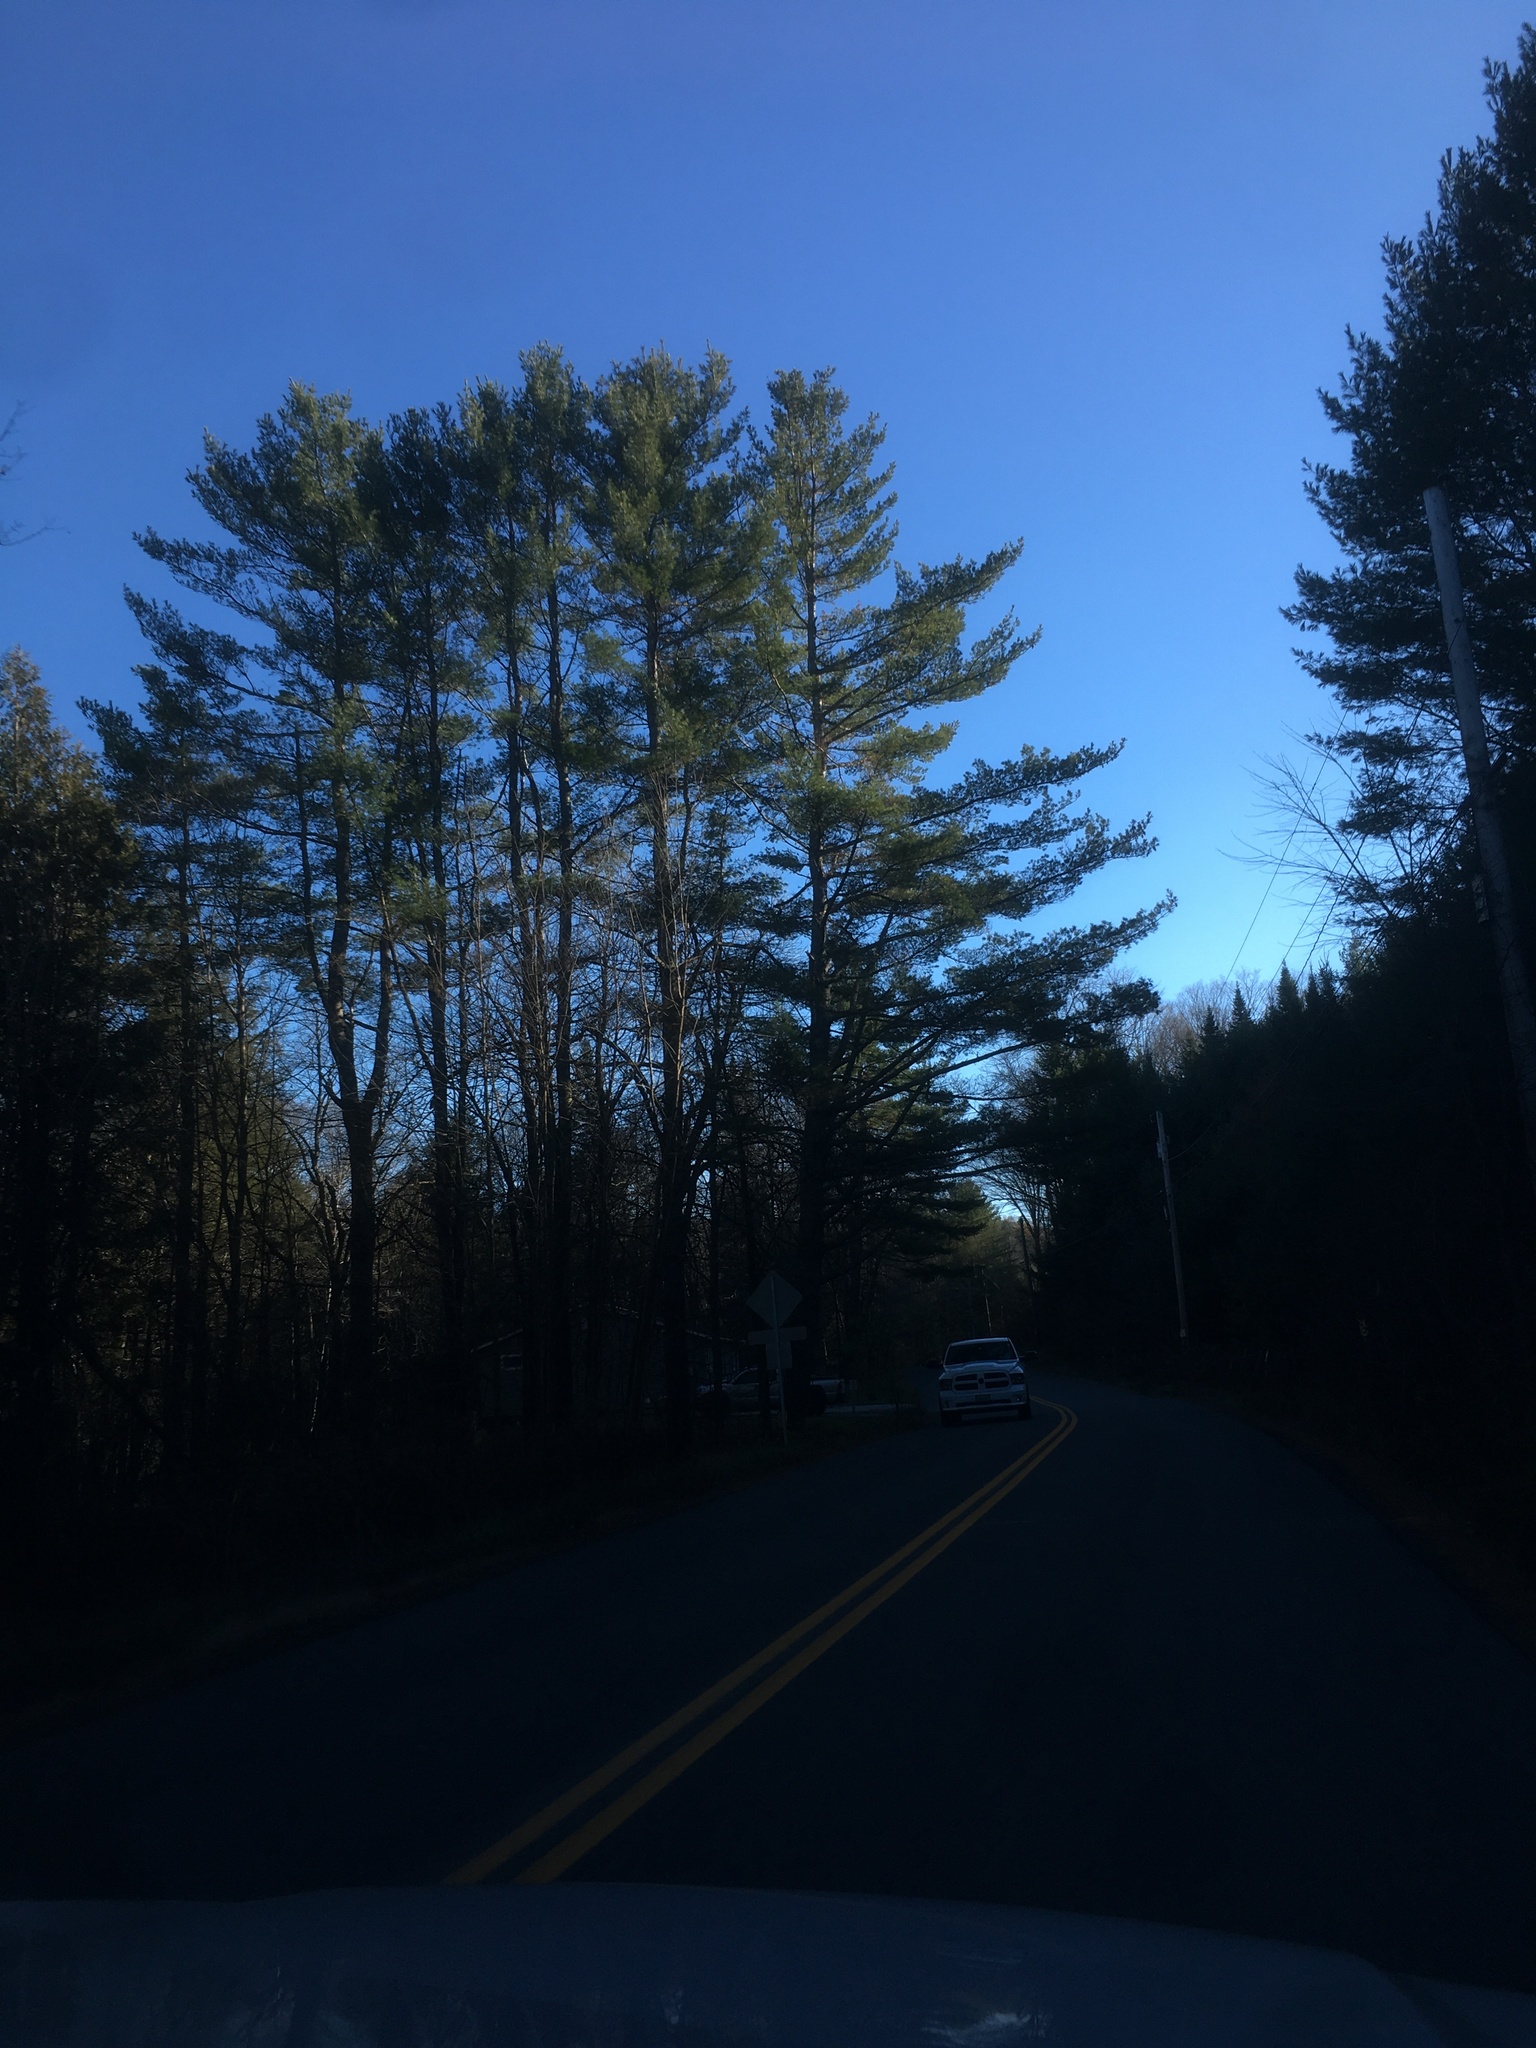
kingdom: Plantae
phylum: Tracheophyta
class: Pinopsida
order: Pinales
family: Pinaceae
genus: Pinus
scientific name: Pinus strobus
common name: Weymouth pine
